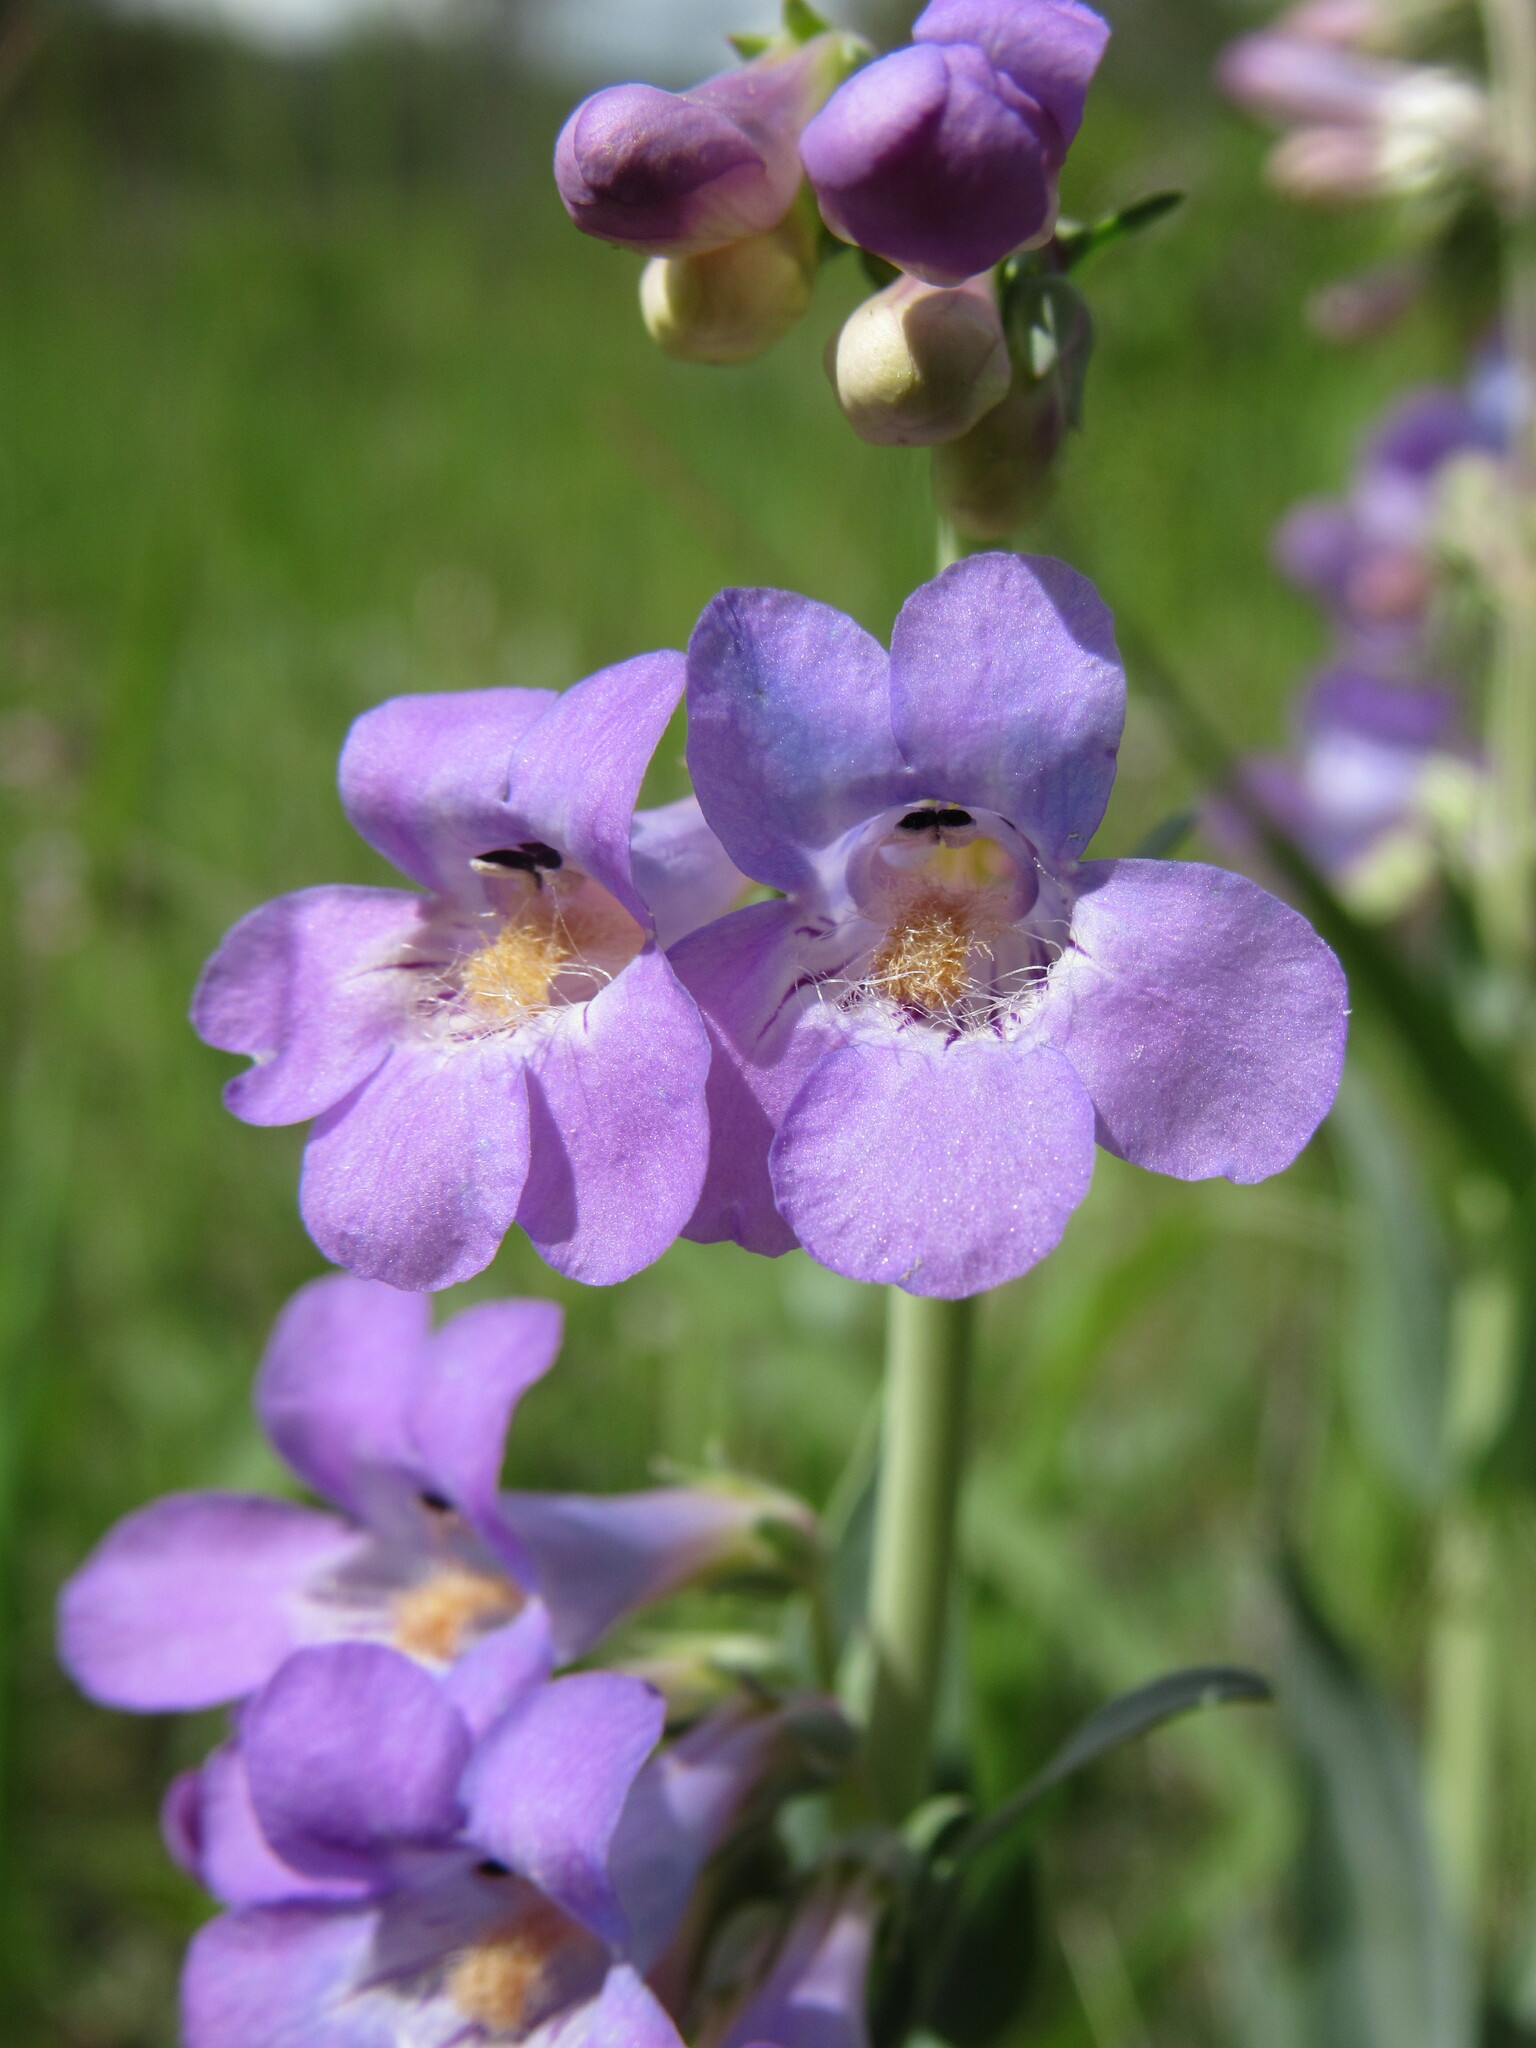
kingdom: Plantae
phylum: Tracheophyta
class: Magnoliopsida
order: Lamiales
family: Plantaginaceae
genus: Penstemon
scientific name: Penstemon secundiflorus
